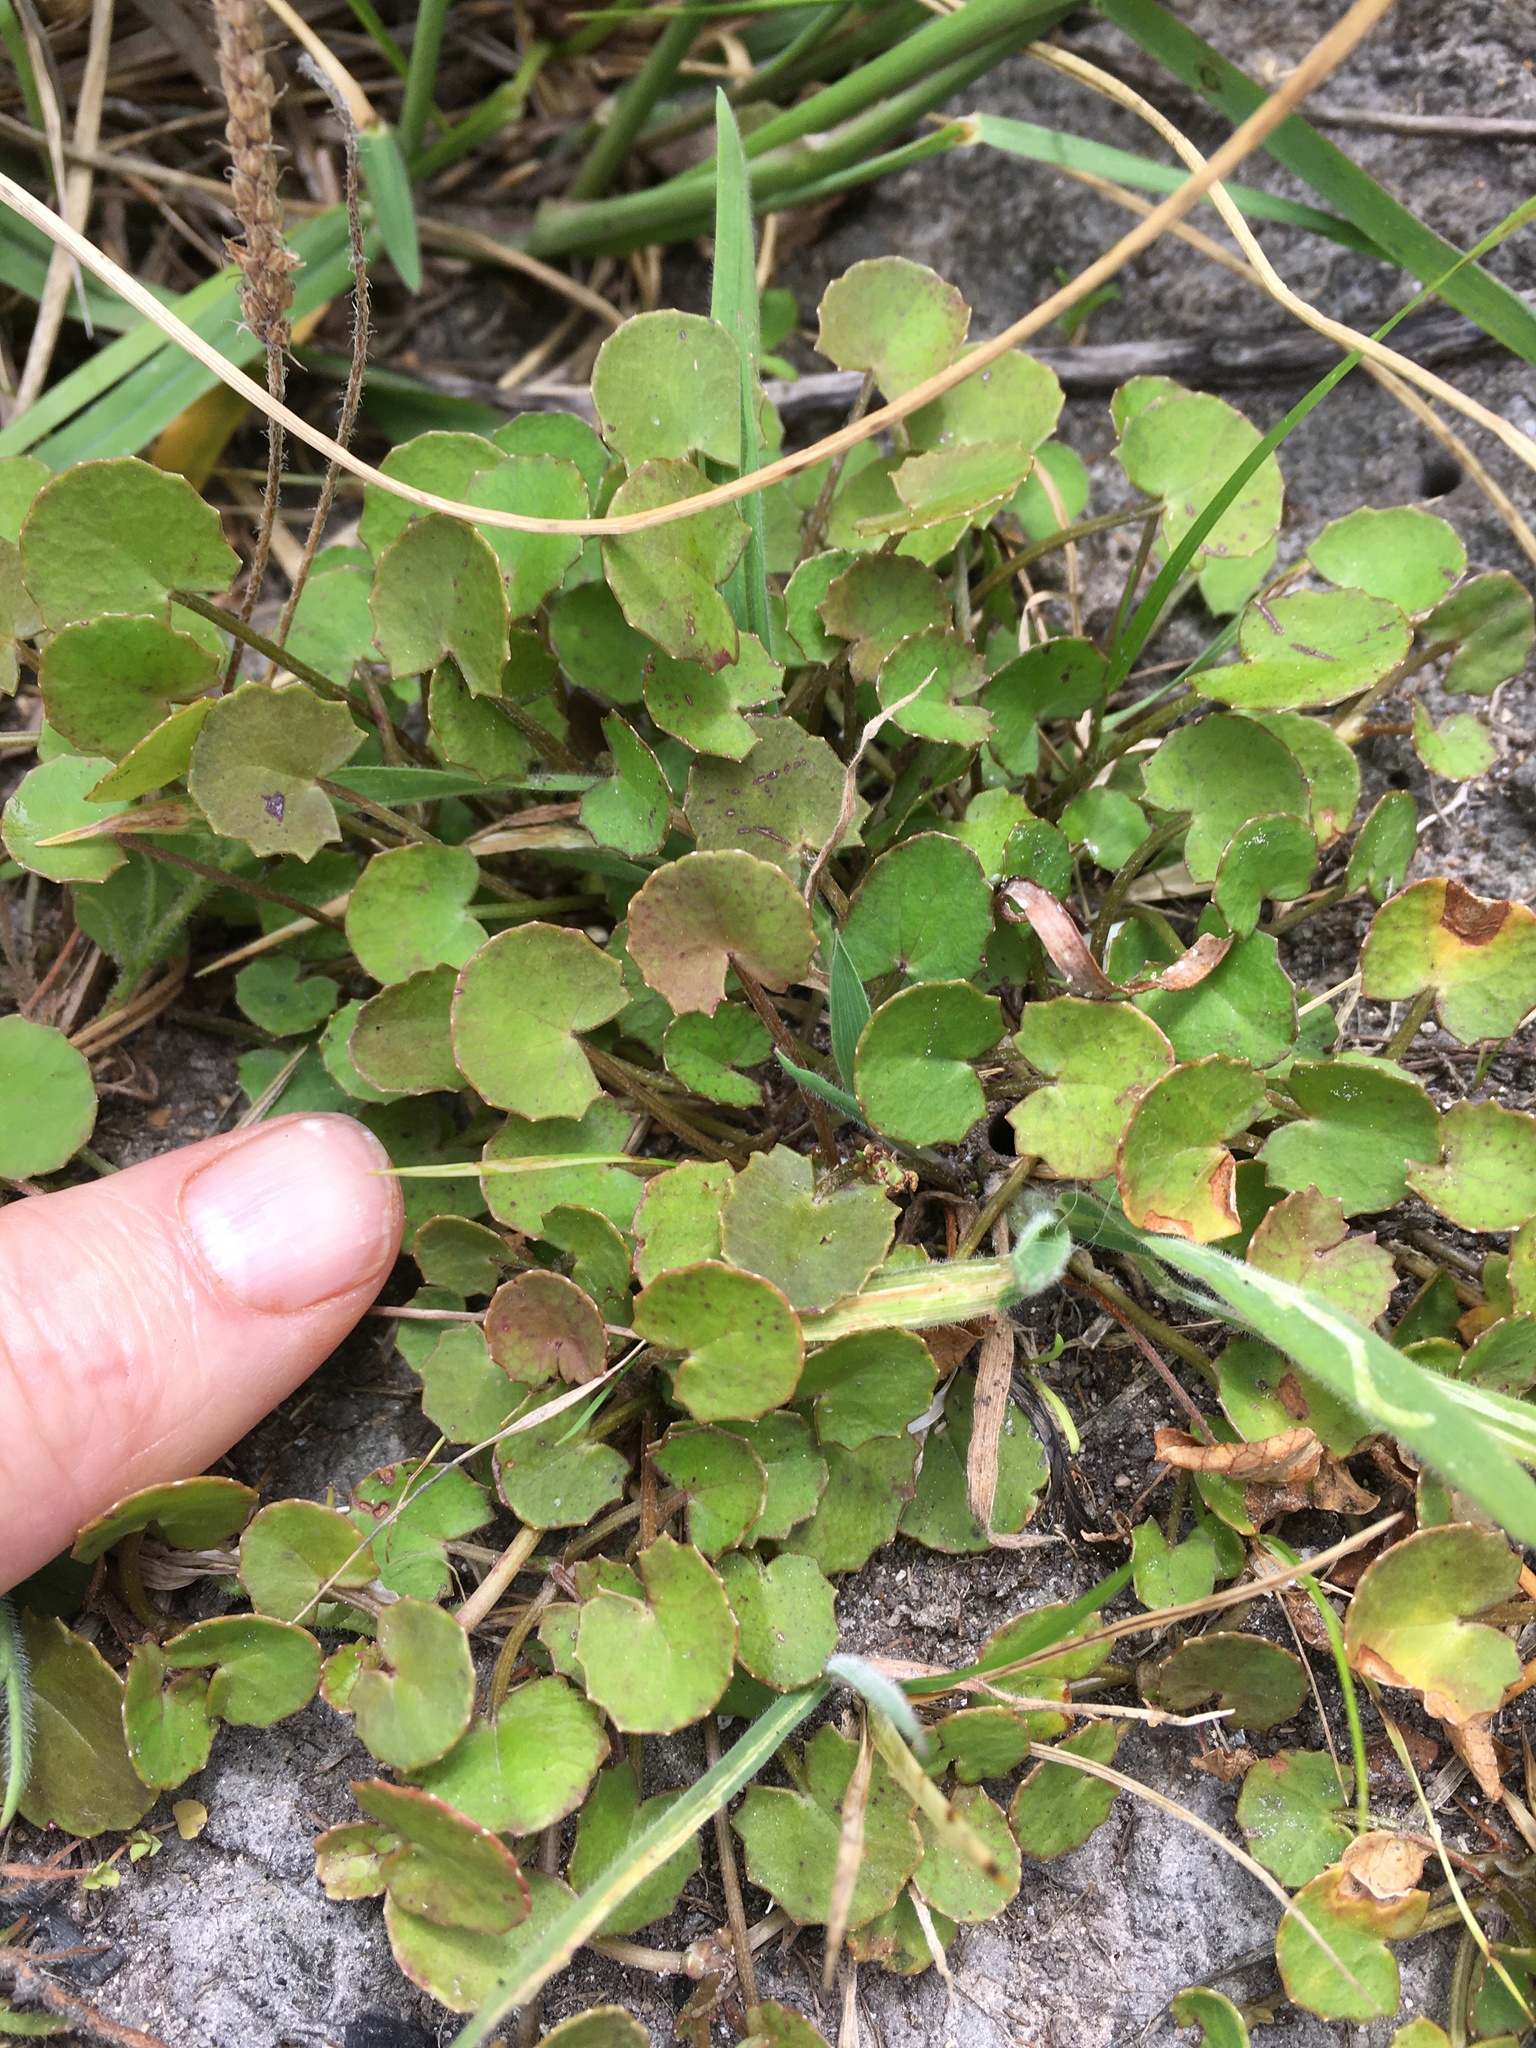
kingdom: Plantae
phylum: Tracheophyta
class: Magnoliopsida
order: Apiales
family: Apiaceae
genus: Centella
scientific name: Centella uniflora
